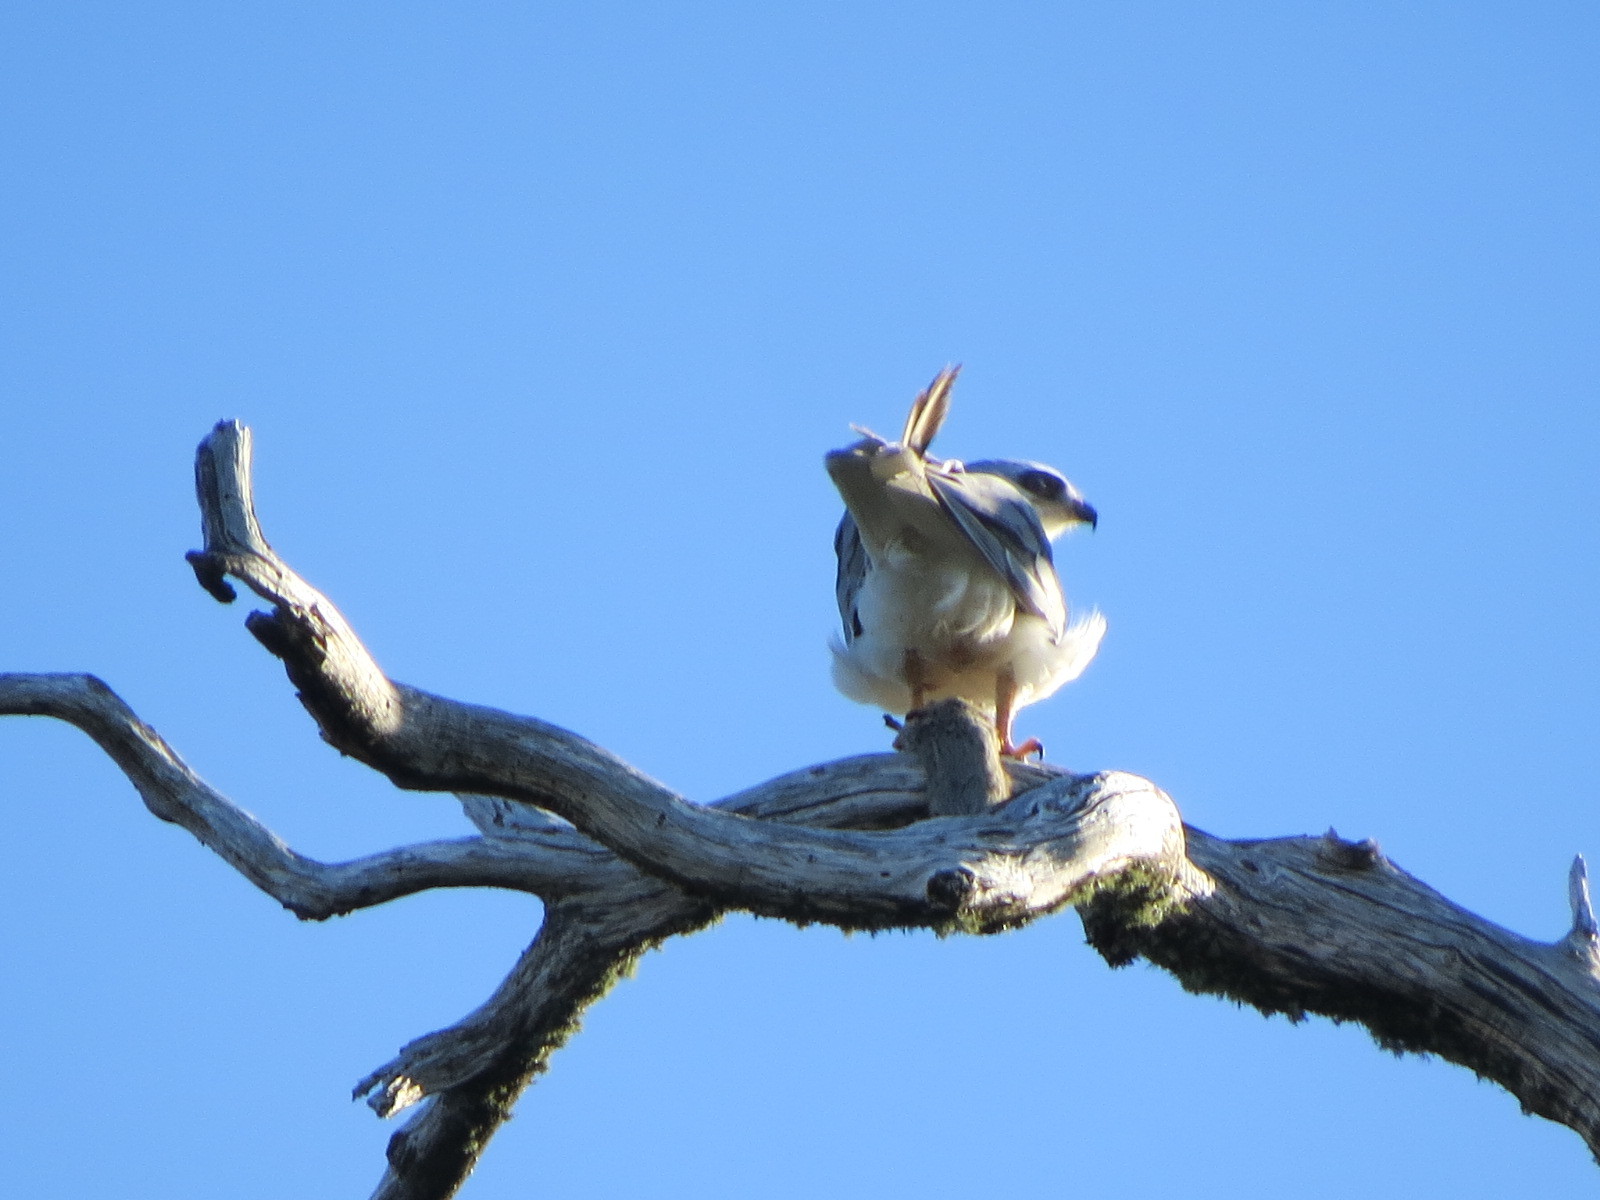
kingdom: Animalia
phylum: Chordata
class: Aves
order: Accipitriformes
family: Accipitridae
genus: Elanus
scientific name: Elanus leucurus
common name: White-tailed kite
